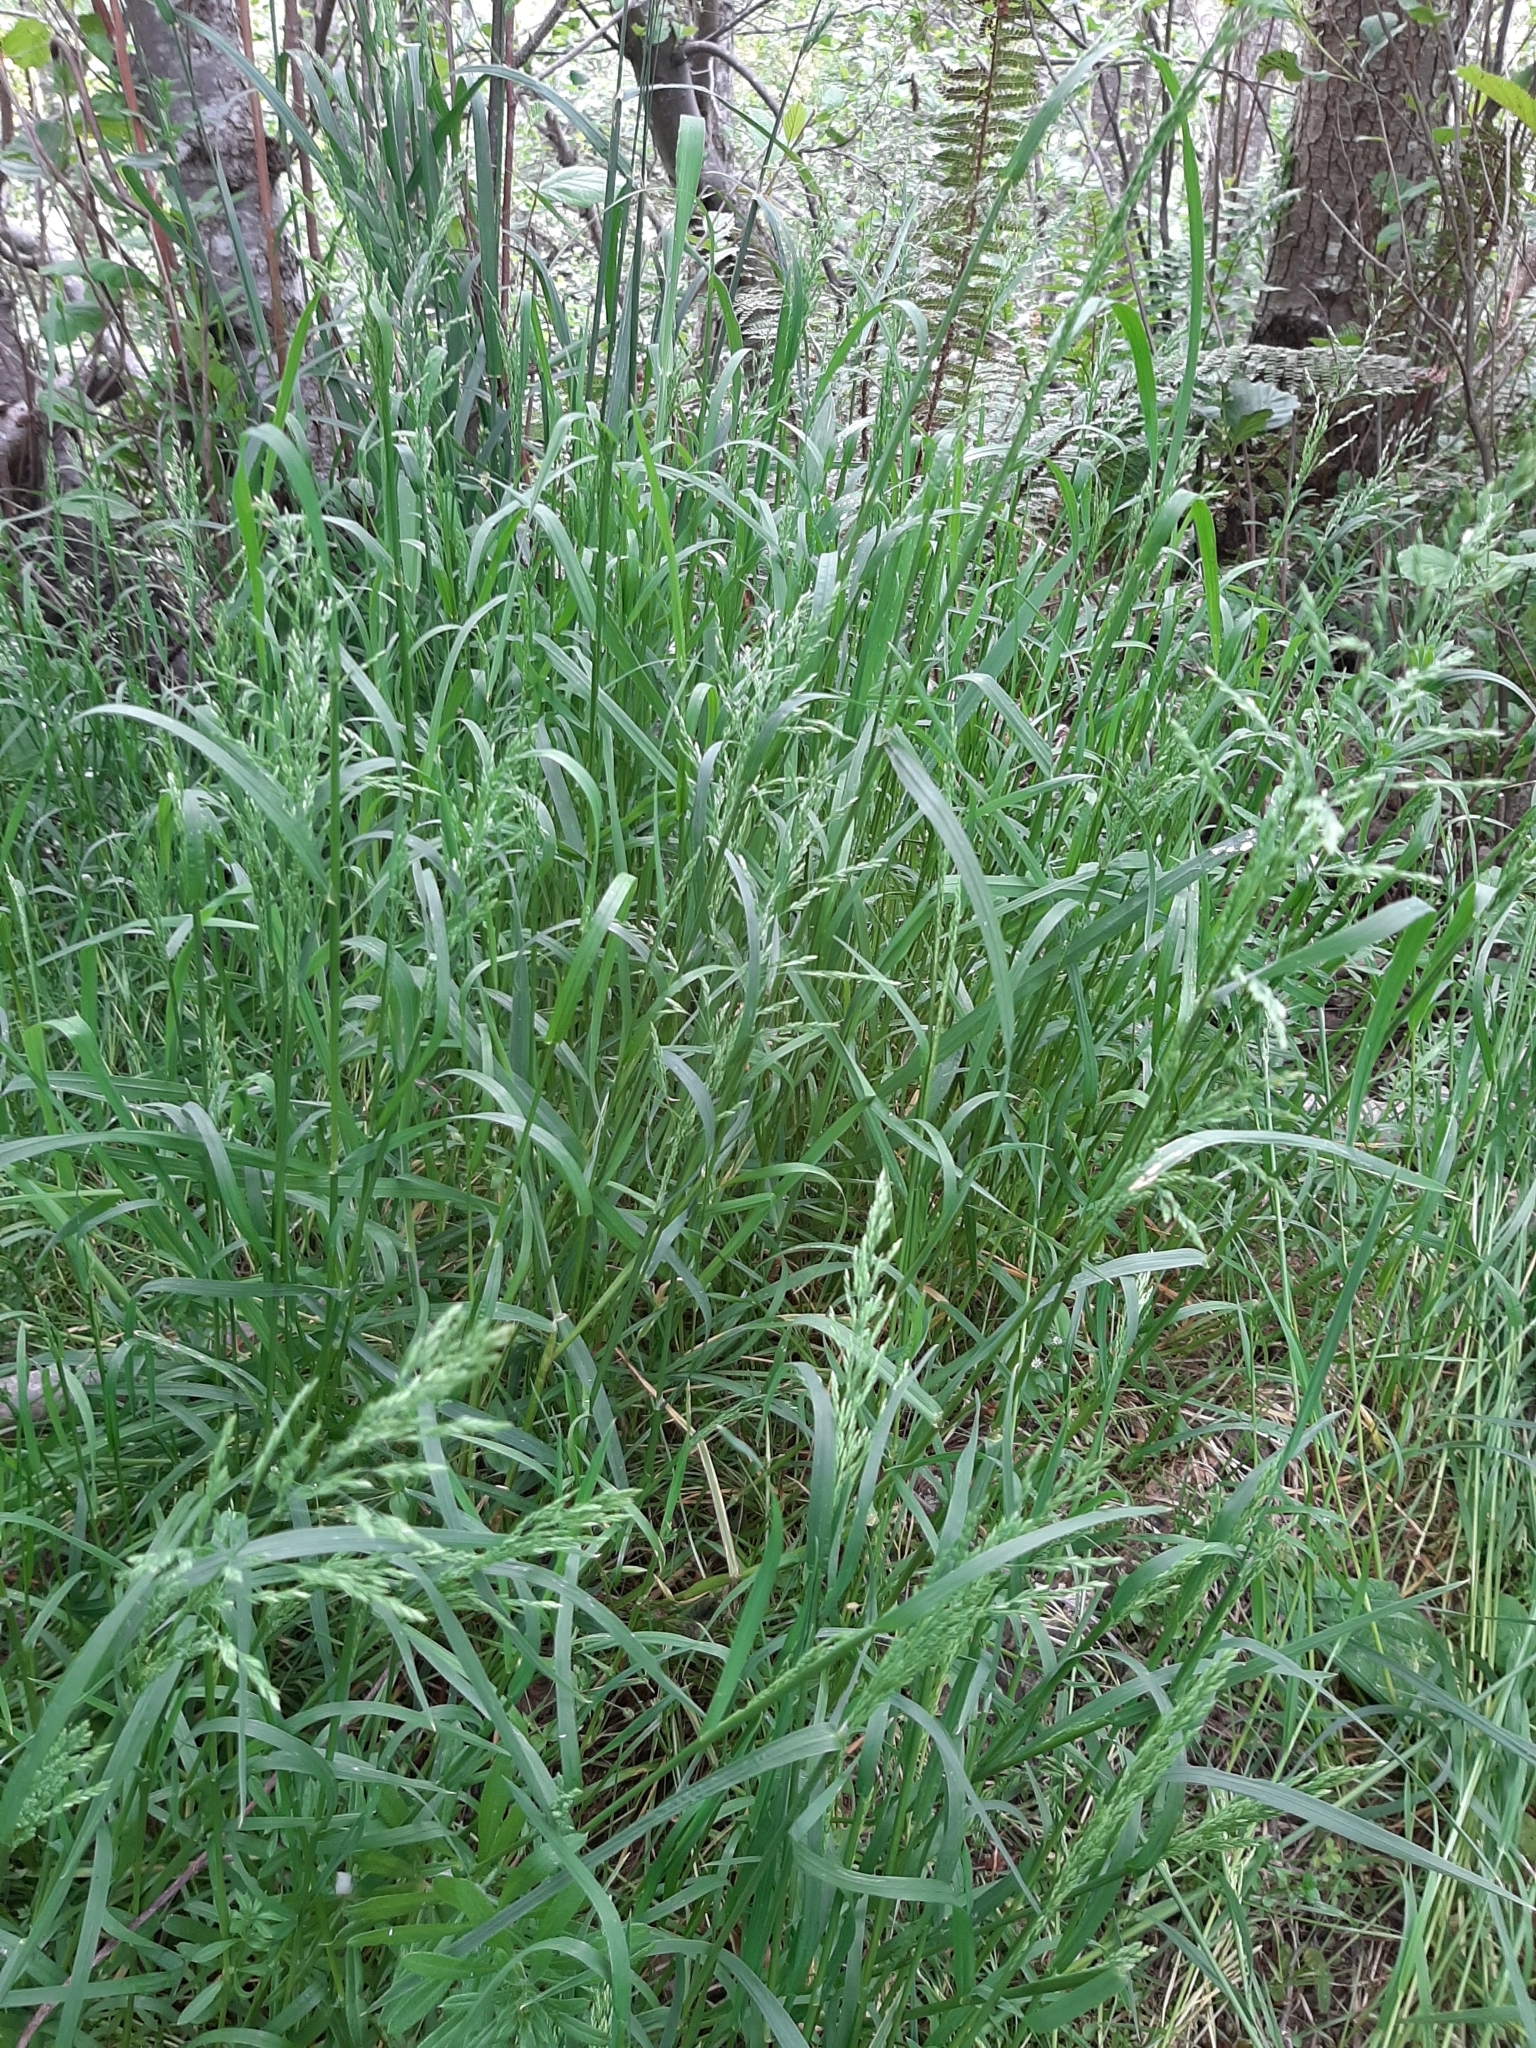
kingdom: Plantae
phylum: Tracheophyta
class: Liliopsida
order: Poales
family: Poaceae
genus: Poa
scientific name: Poa trivialis
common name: Rough bluegrass
